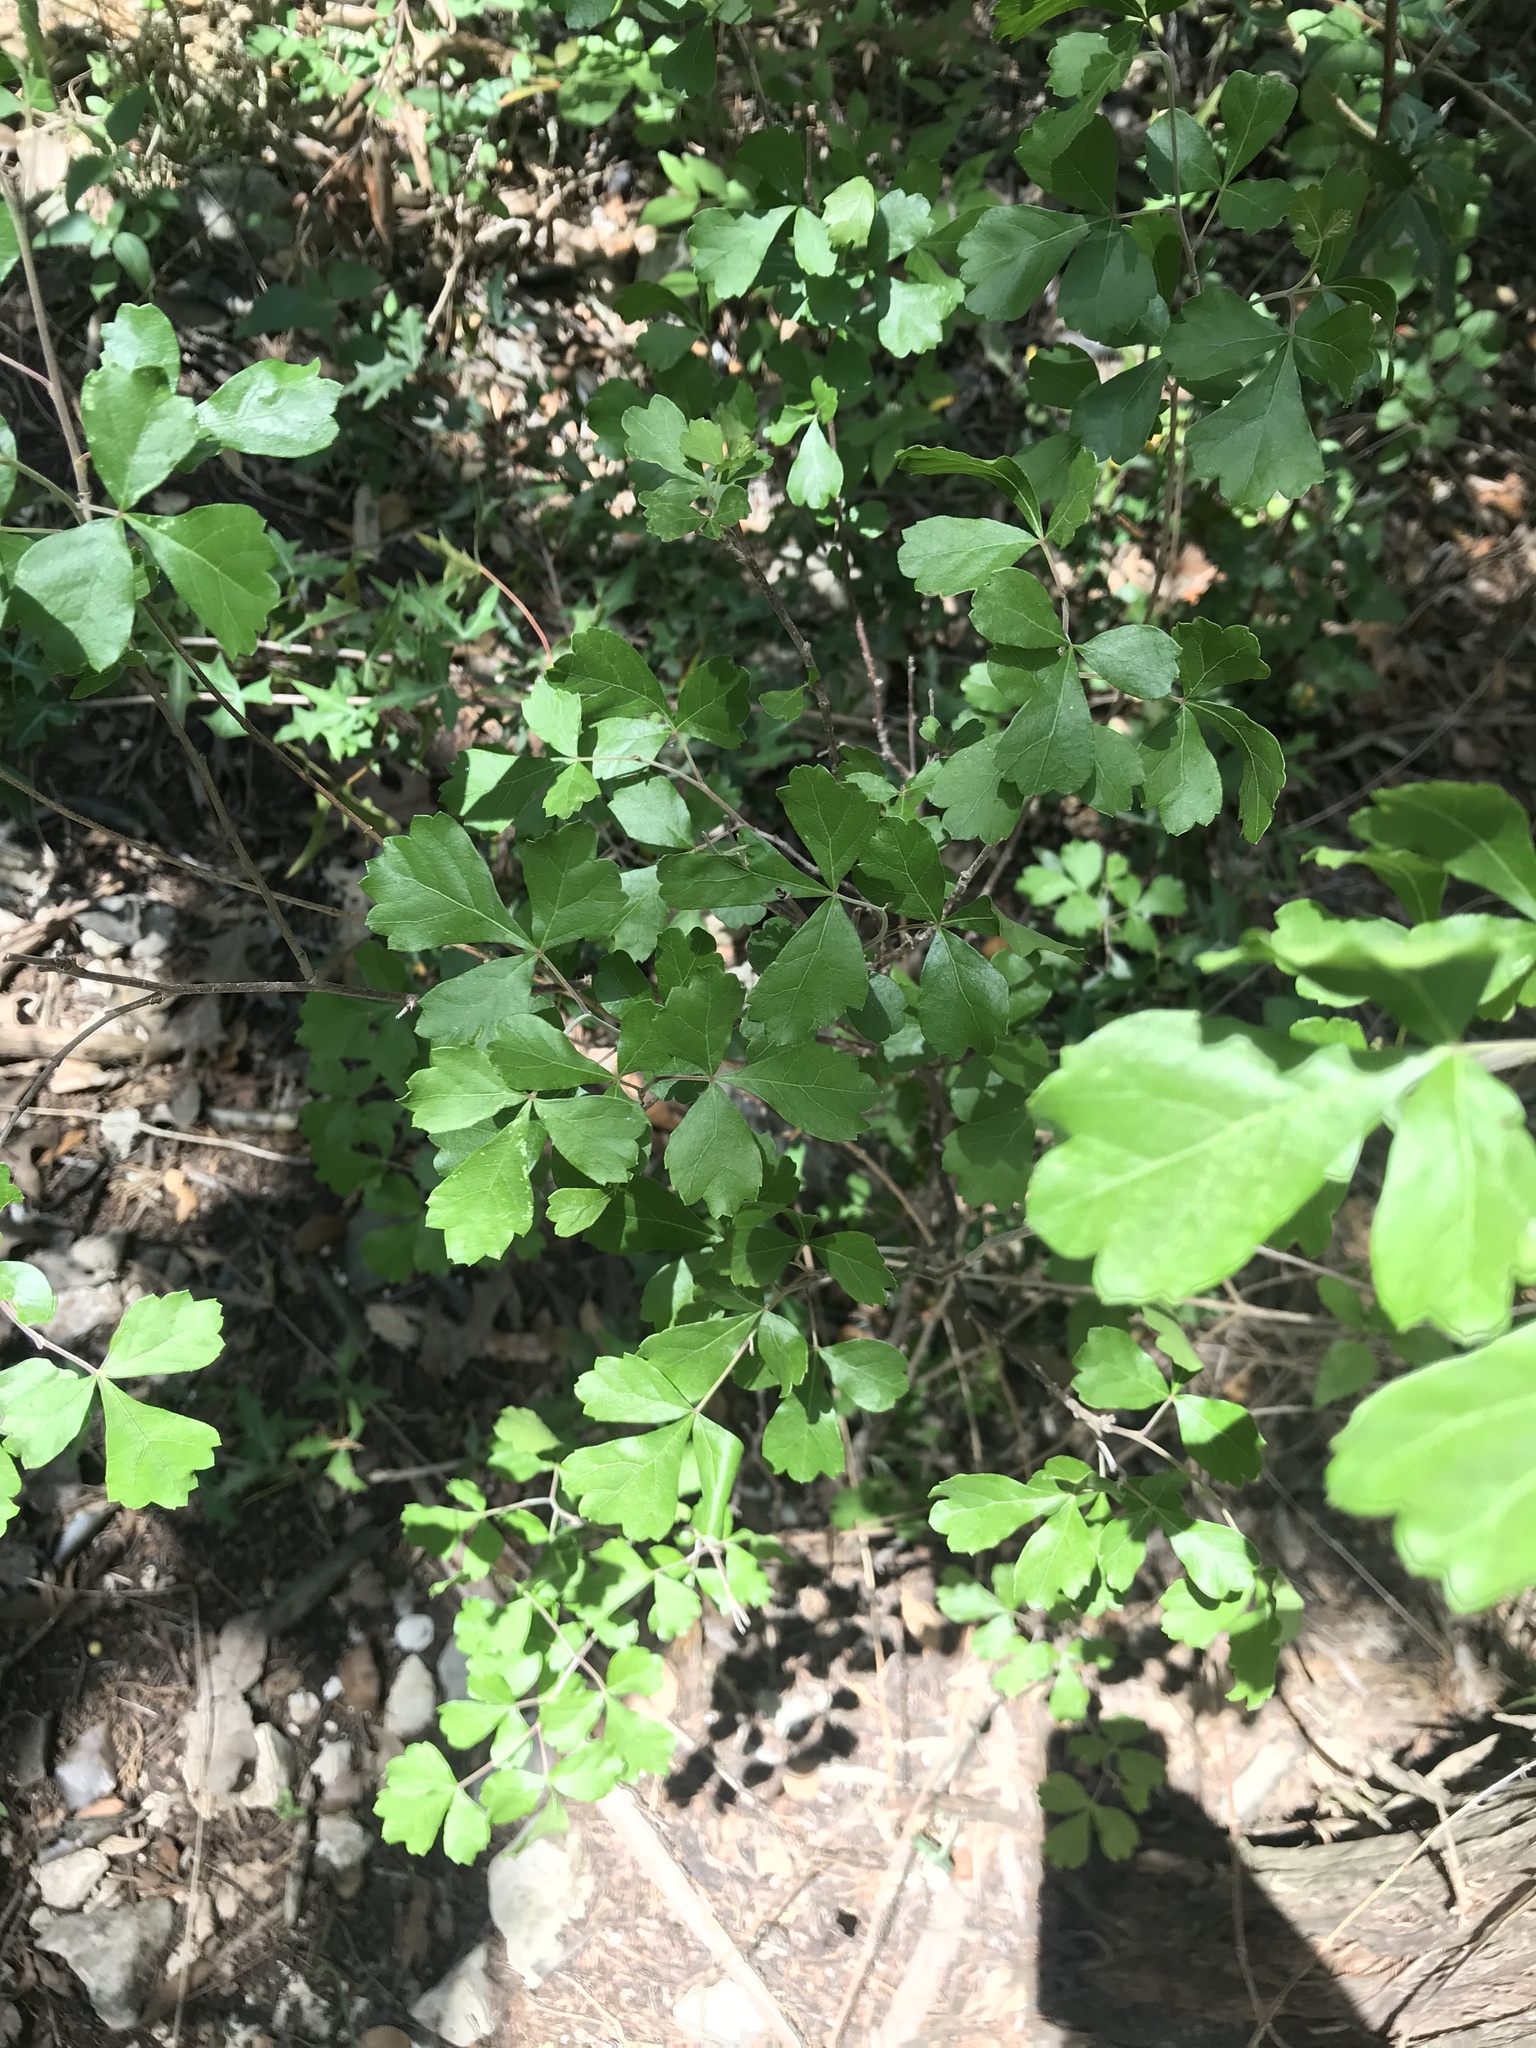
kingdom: Plantae
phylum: Tracheophyta
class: Magnoliopsida
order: Sapindales
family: Anacardiaceae
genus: Rhus
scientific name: Rhus aromatica
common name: Aromatic sumac
